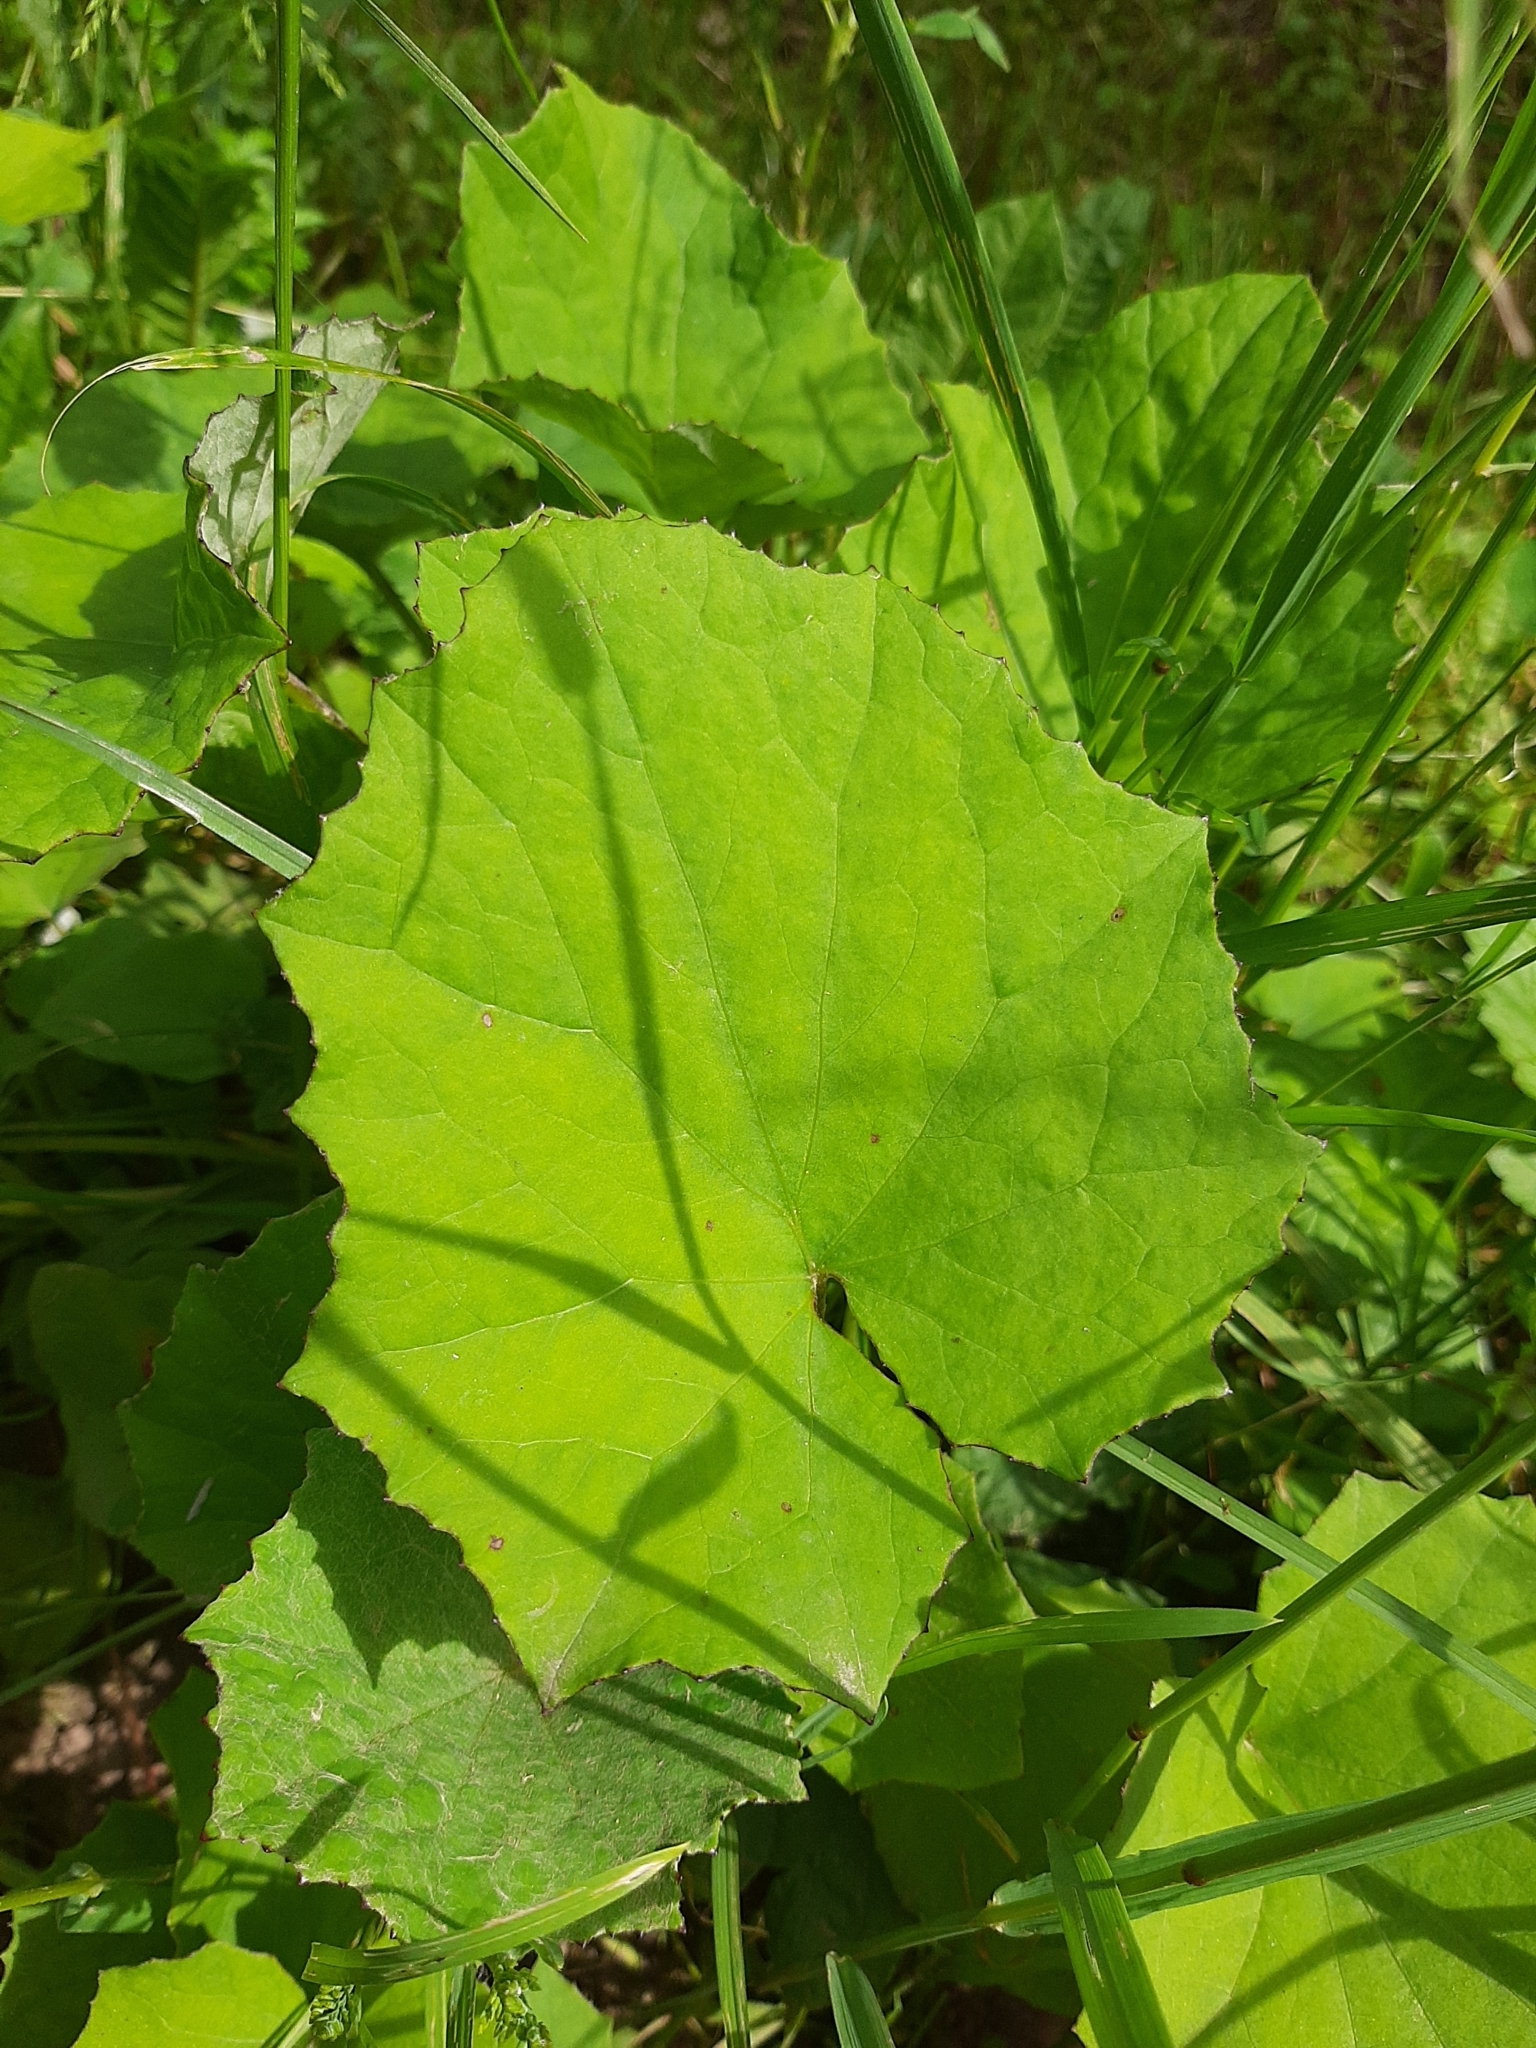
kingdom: Plantae
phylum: Tracheophyta
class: Magnoliopsida
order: Asterales
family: Asteraceae
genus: Tussilago
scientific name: Tussilago farfara
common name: Coltsfoot
